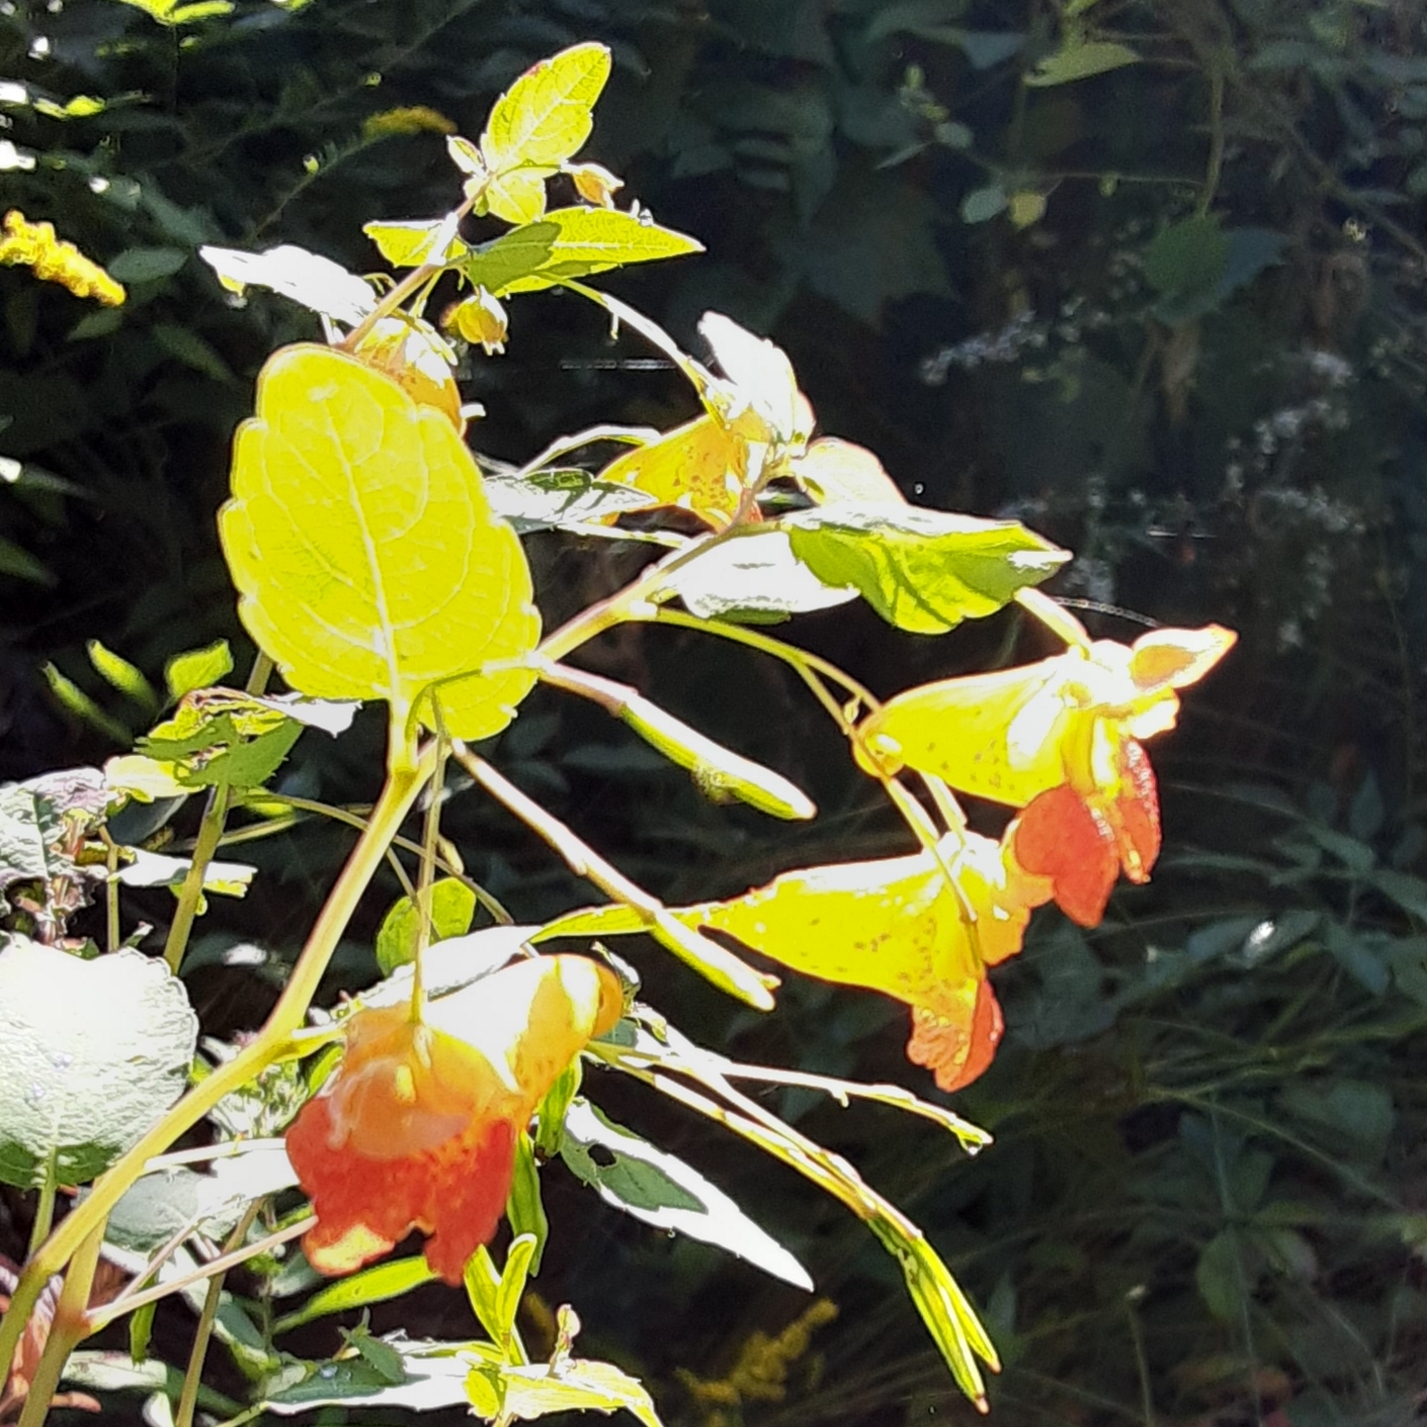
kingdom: Plantae
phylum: Tracheophyta
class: Magnoliopsida
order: Ericales
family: Balsaminaceae
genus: Impatiens
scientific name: Impatiens capensis
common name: Orange balsam
